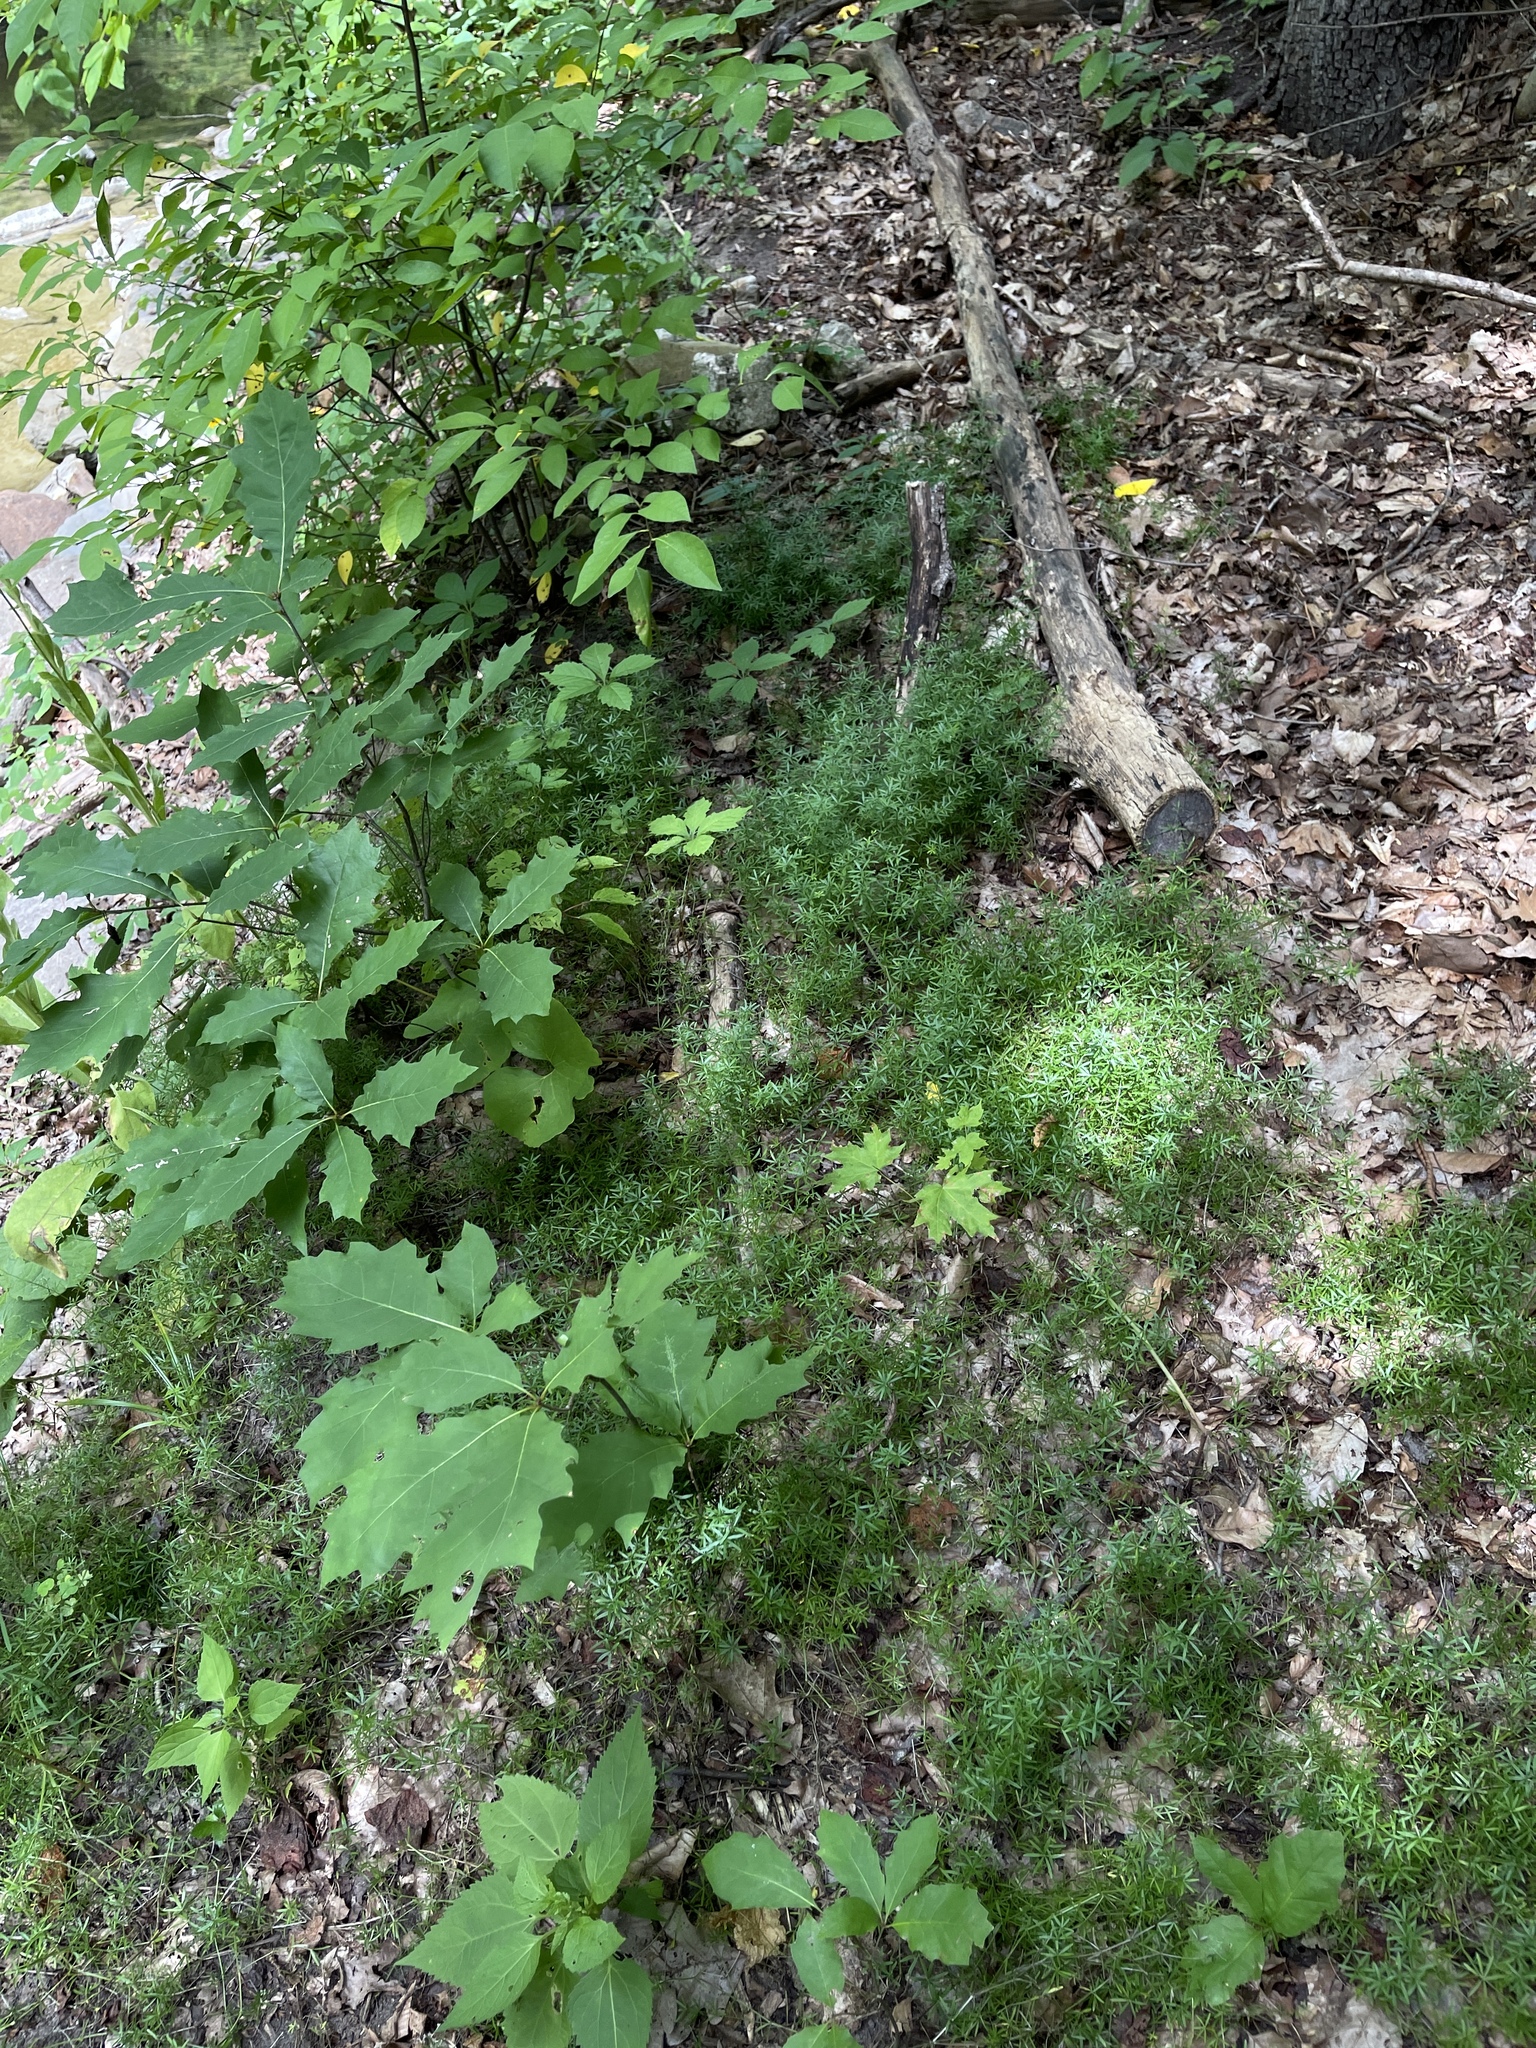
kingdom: Plantae
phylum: Tracheophyta
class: Magnoliopsida
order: Gentianales
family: Rubiaceae
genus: Galium
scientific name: Galium concinnum
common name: Shining bedstraw
